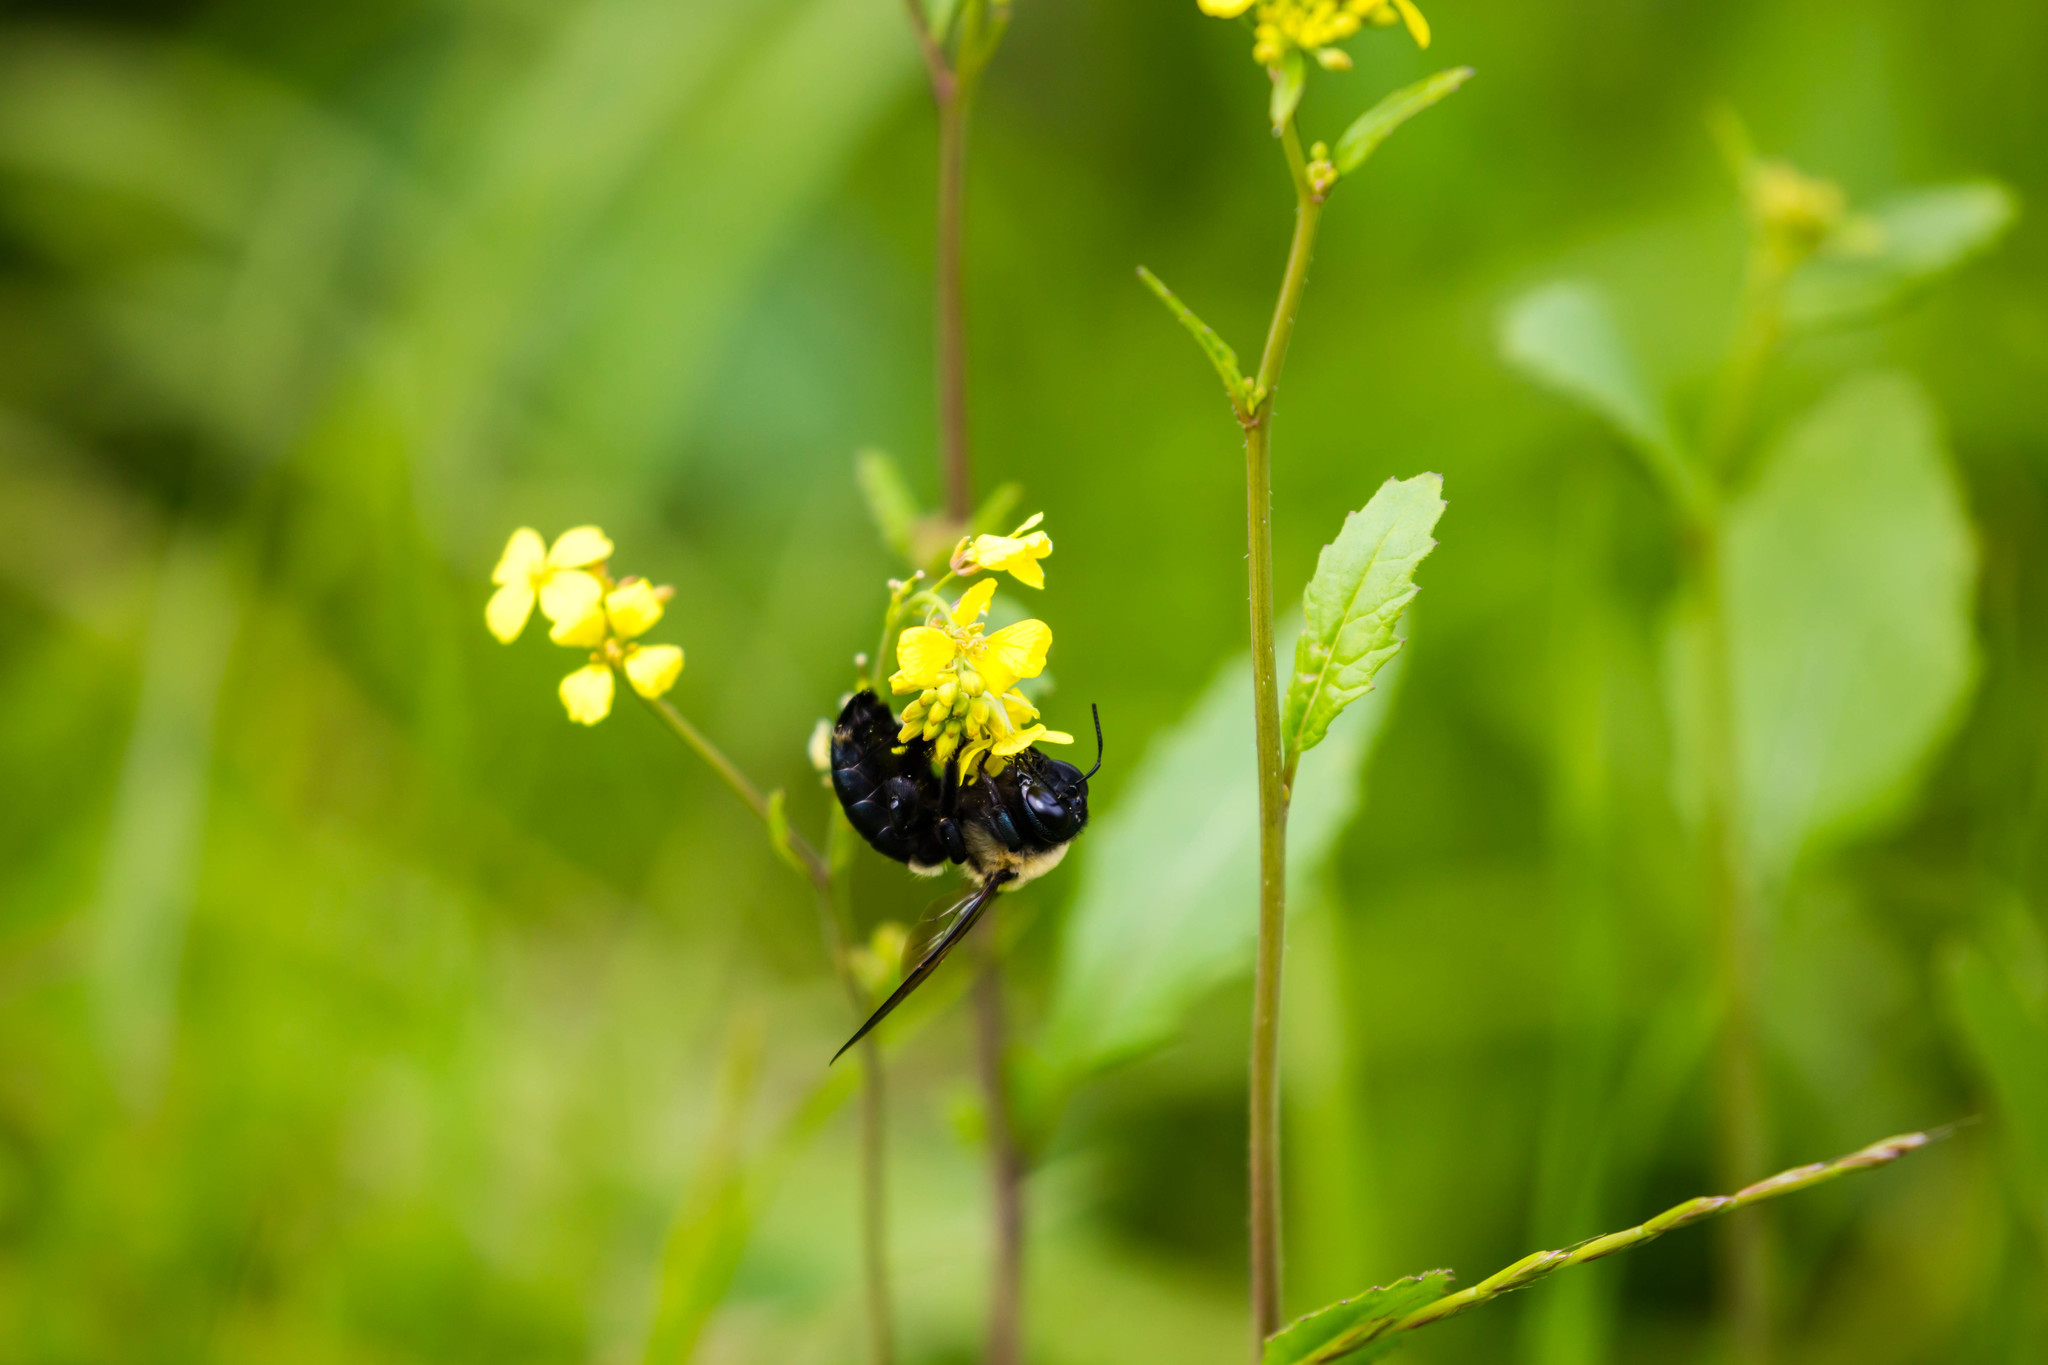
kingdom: Animalia
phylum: Arthropoda
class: Insecta
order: Hymenoptera
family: Apidae
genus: Xylocopa
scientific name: Xylocopa virginica
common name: Carpenter bee
